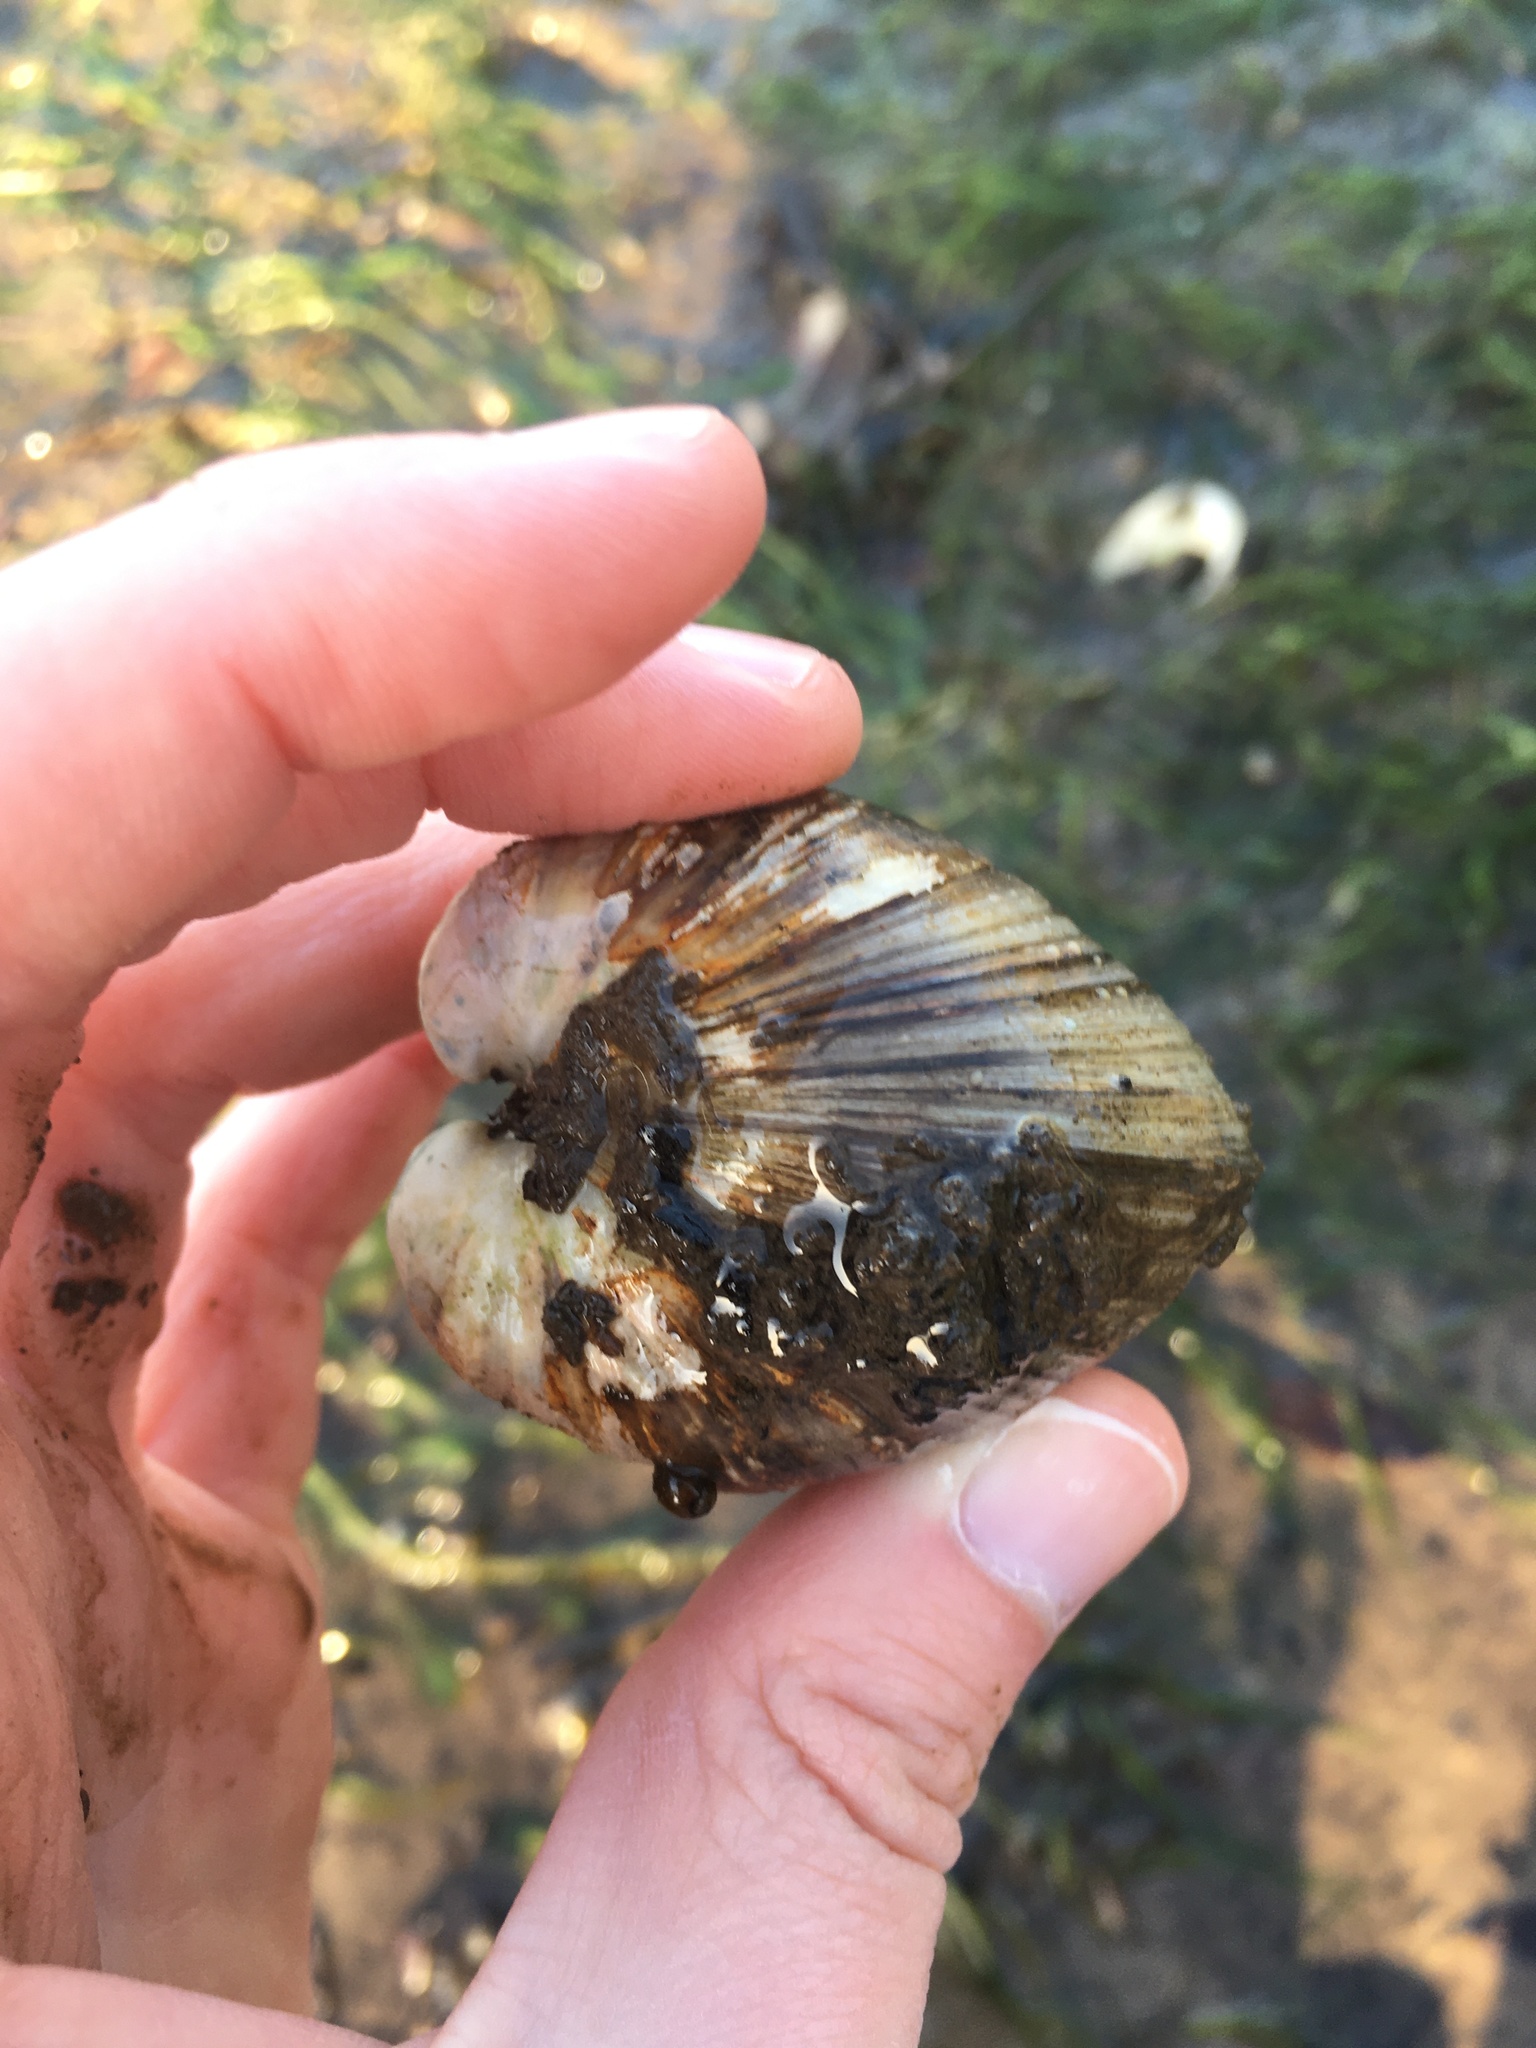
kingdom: Animalia
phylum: Mollusca
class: Bivalvia
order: Venerida
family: Mactridae
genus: Rangia
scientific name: Rangia cuneata
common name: Atlantic rangia
